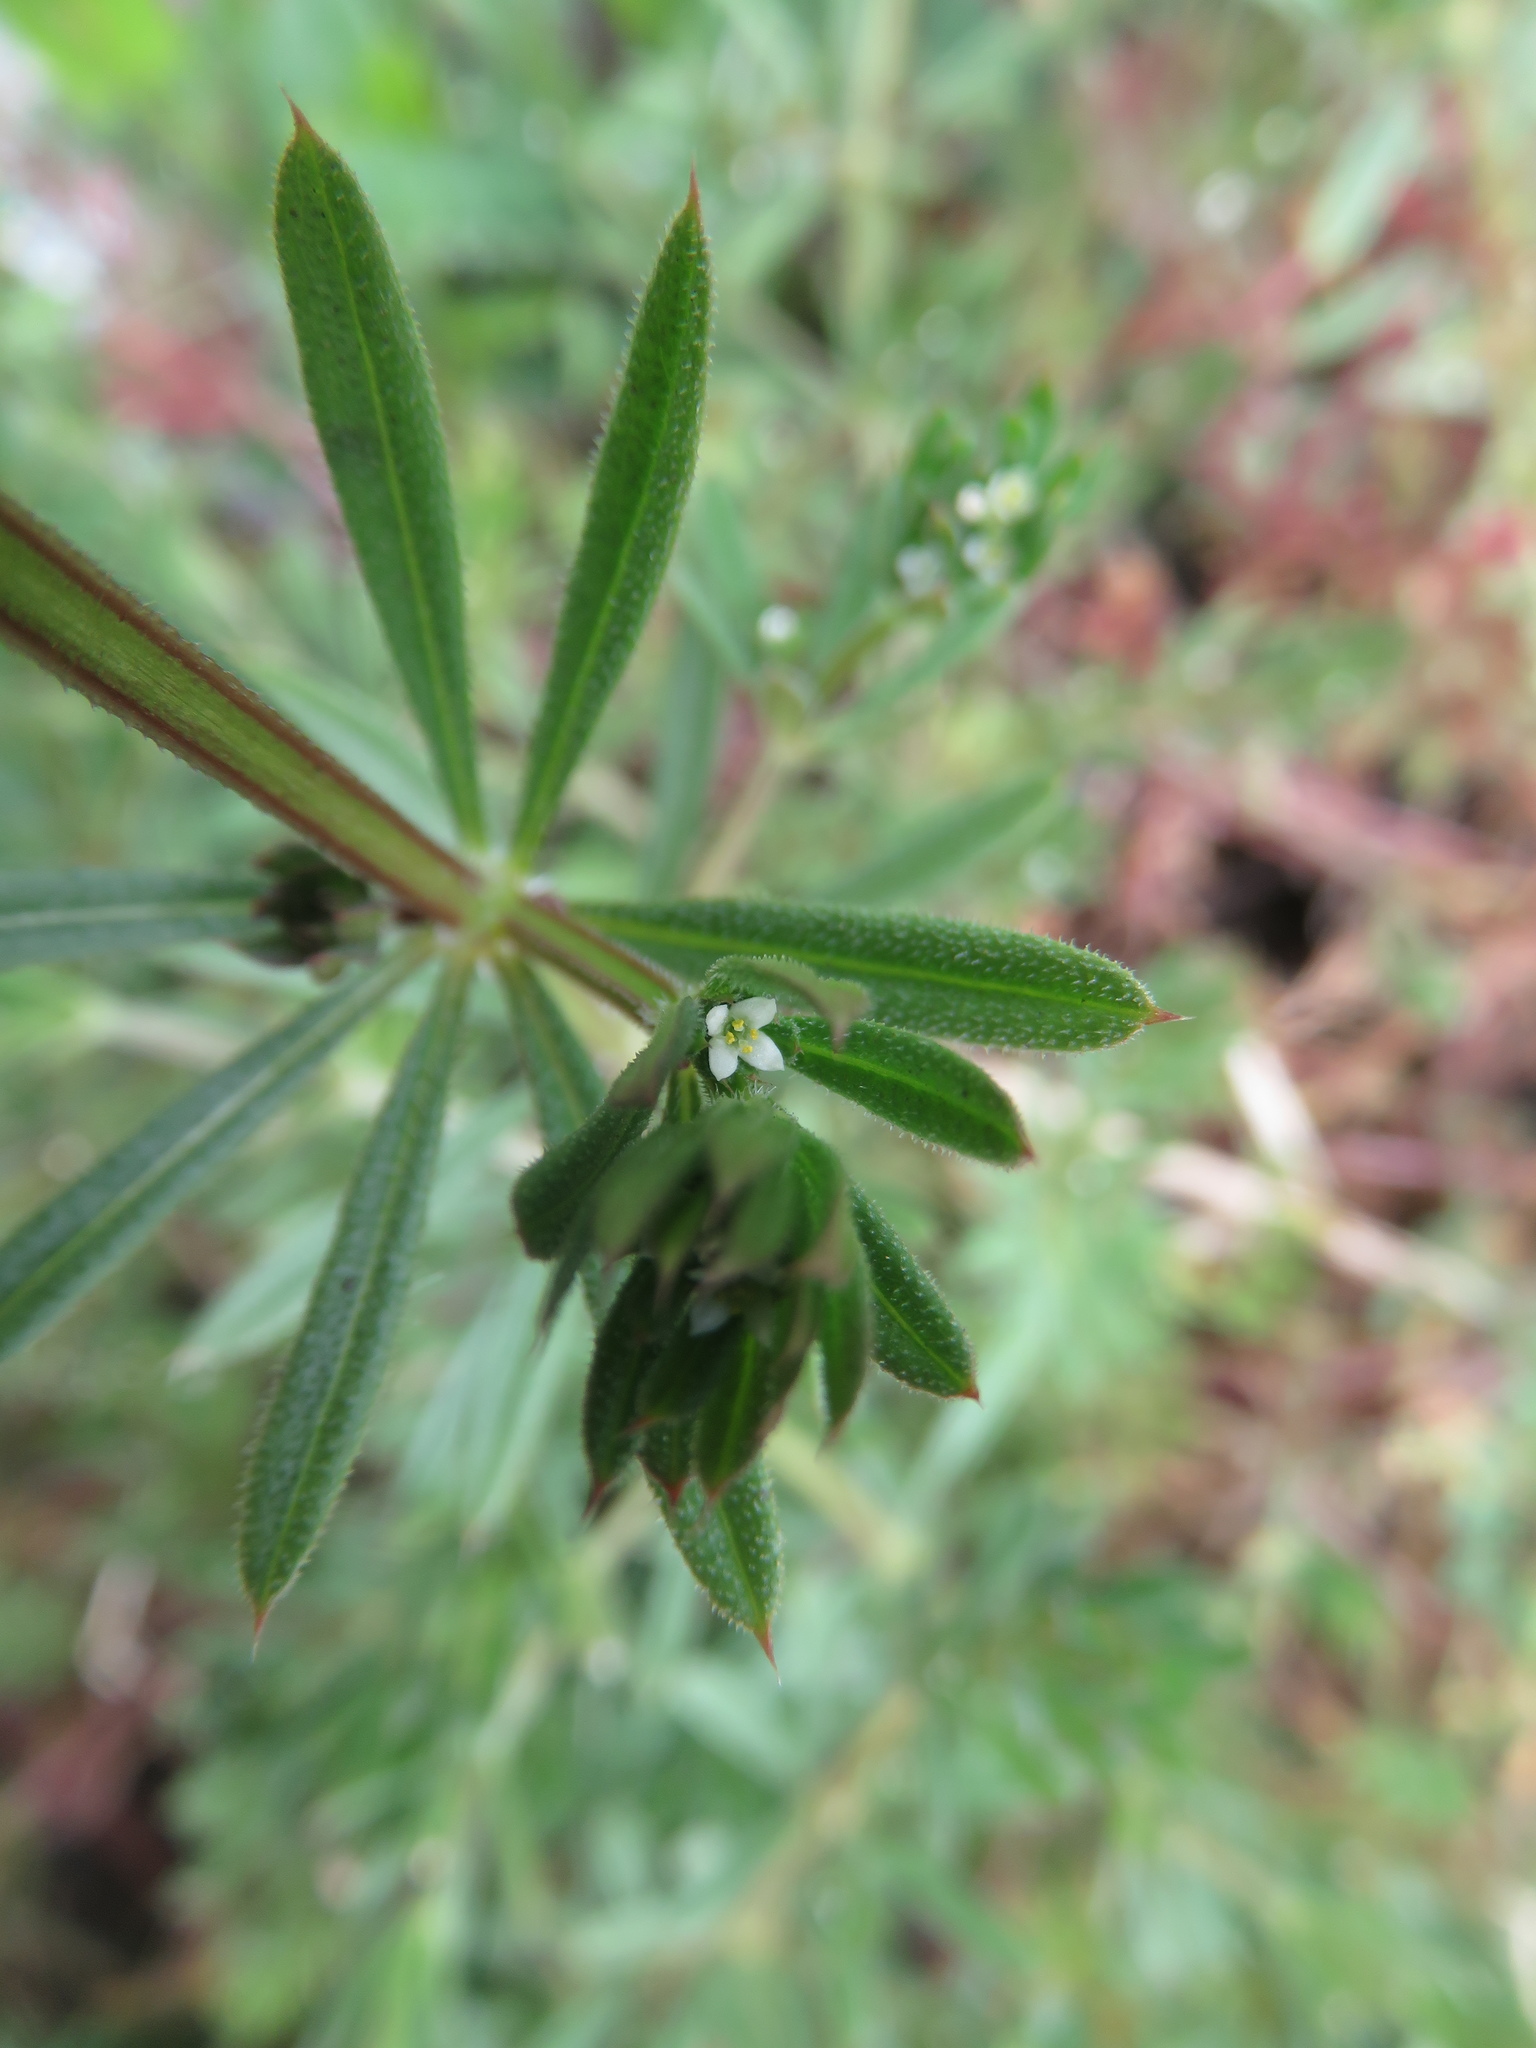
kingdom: Plantae
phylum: Tracheophyta
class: Magnoliopsida
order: Gentianales
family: Rubiaceae
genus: Galium
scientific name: Galium aparine
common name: Cleavers
